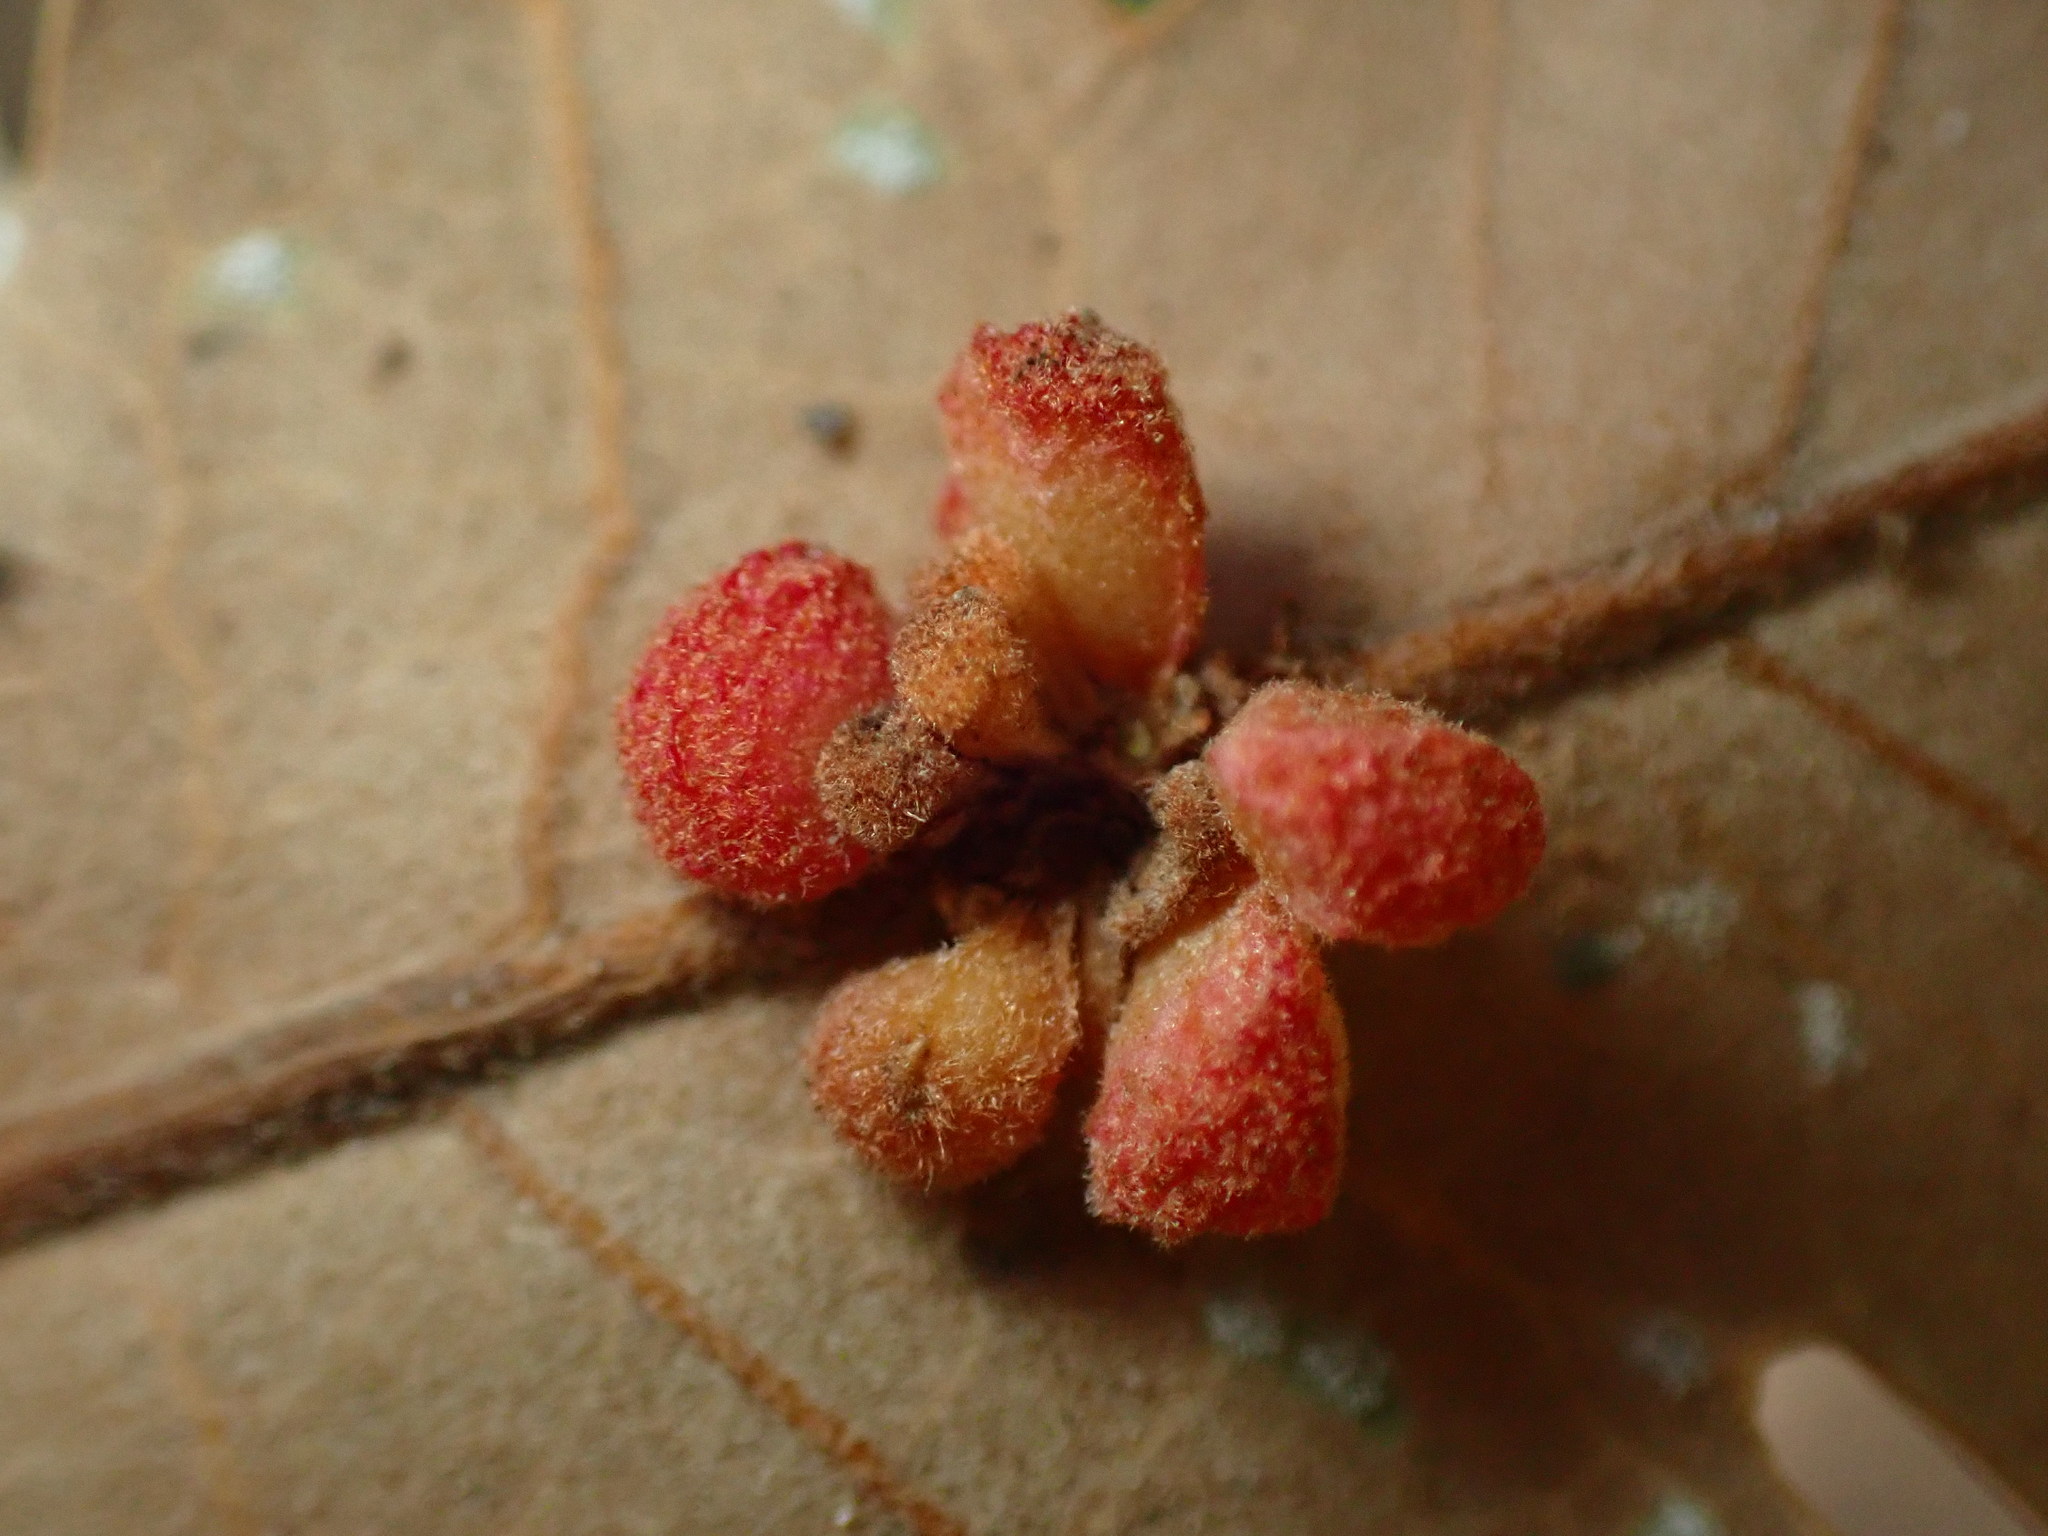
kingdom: Animalia
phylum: Arthropoda
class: Insecta
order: Hymenoptera
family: Cynipidae
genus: Andricus
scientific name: Andricus
